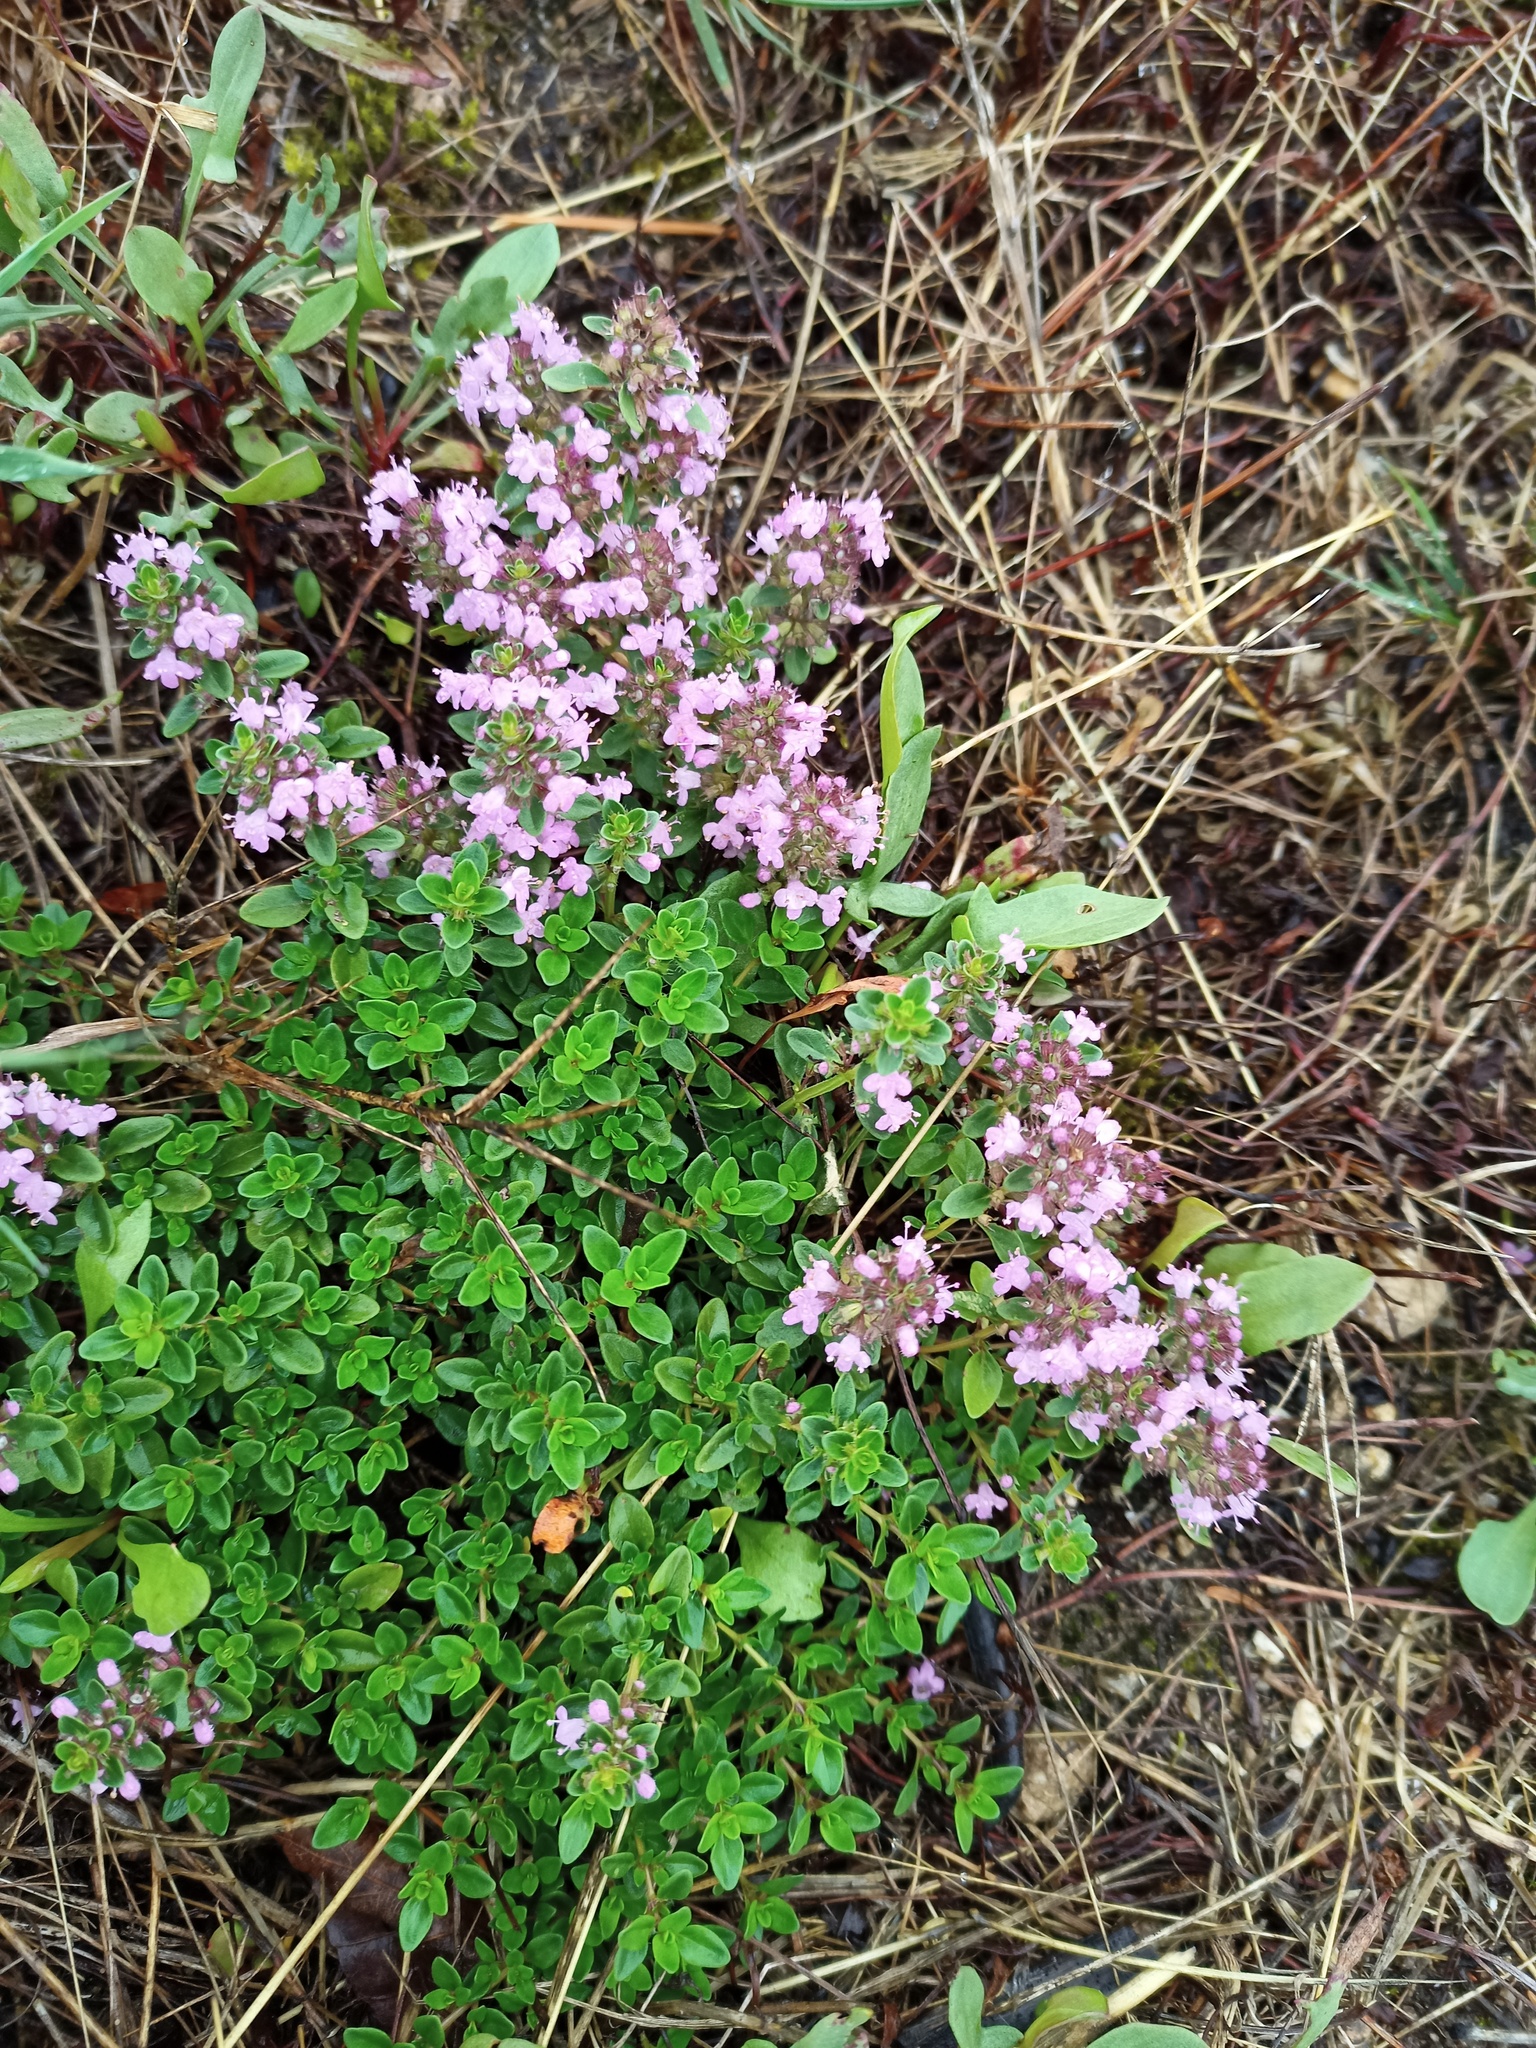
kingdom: Plantae
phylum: Tracheophyta
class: Magnoliopsida
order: Lamiales
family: Lamiaceae
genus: Thymus
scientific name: Thymus pulegioides
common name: Large thyme
